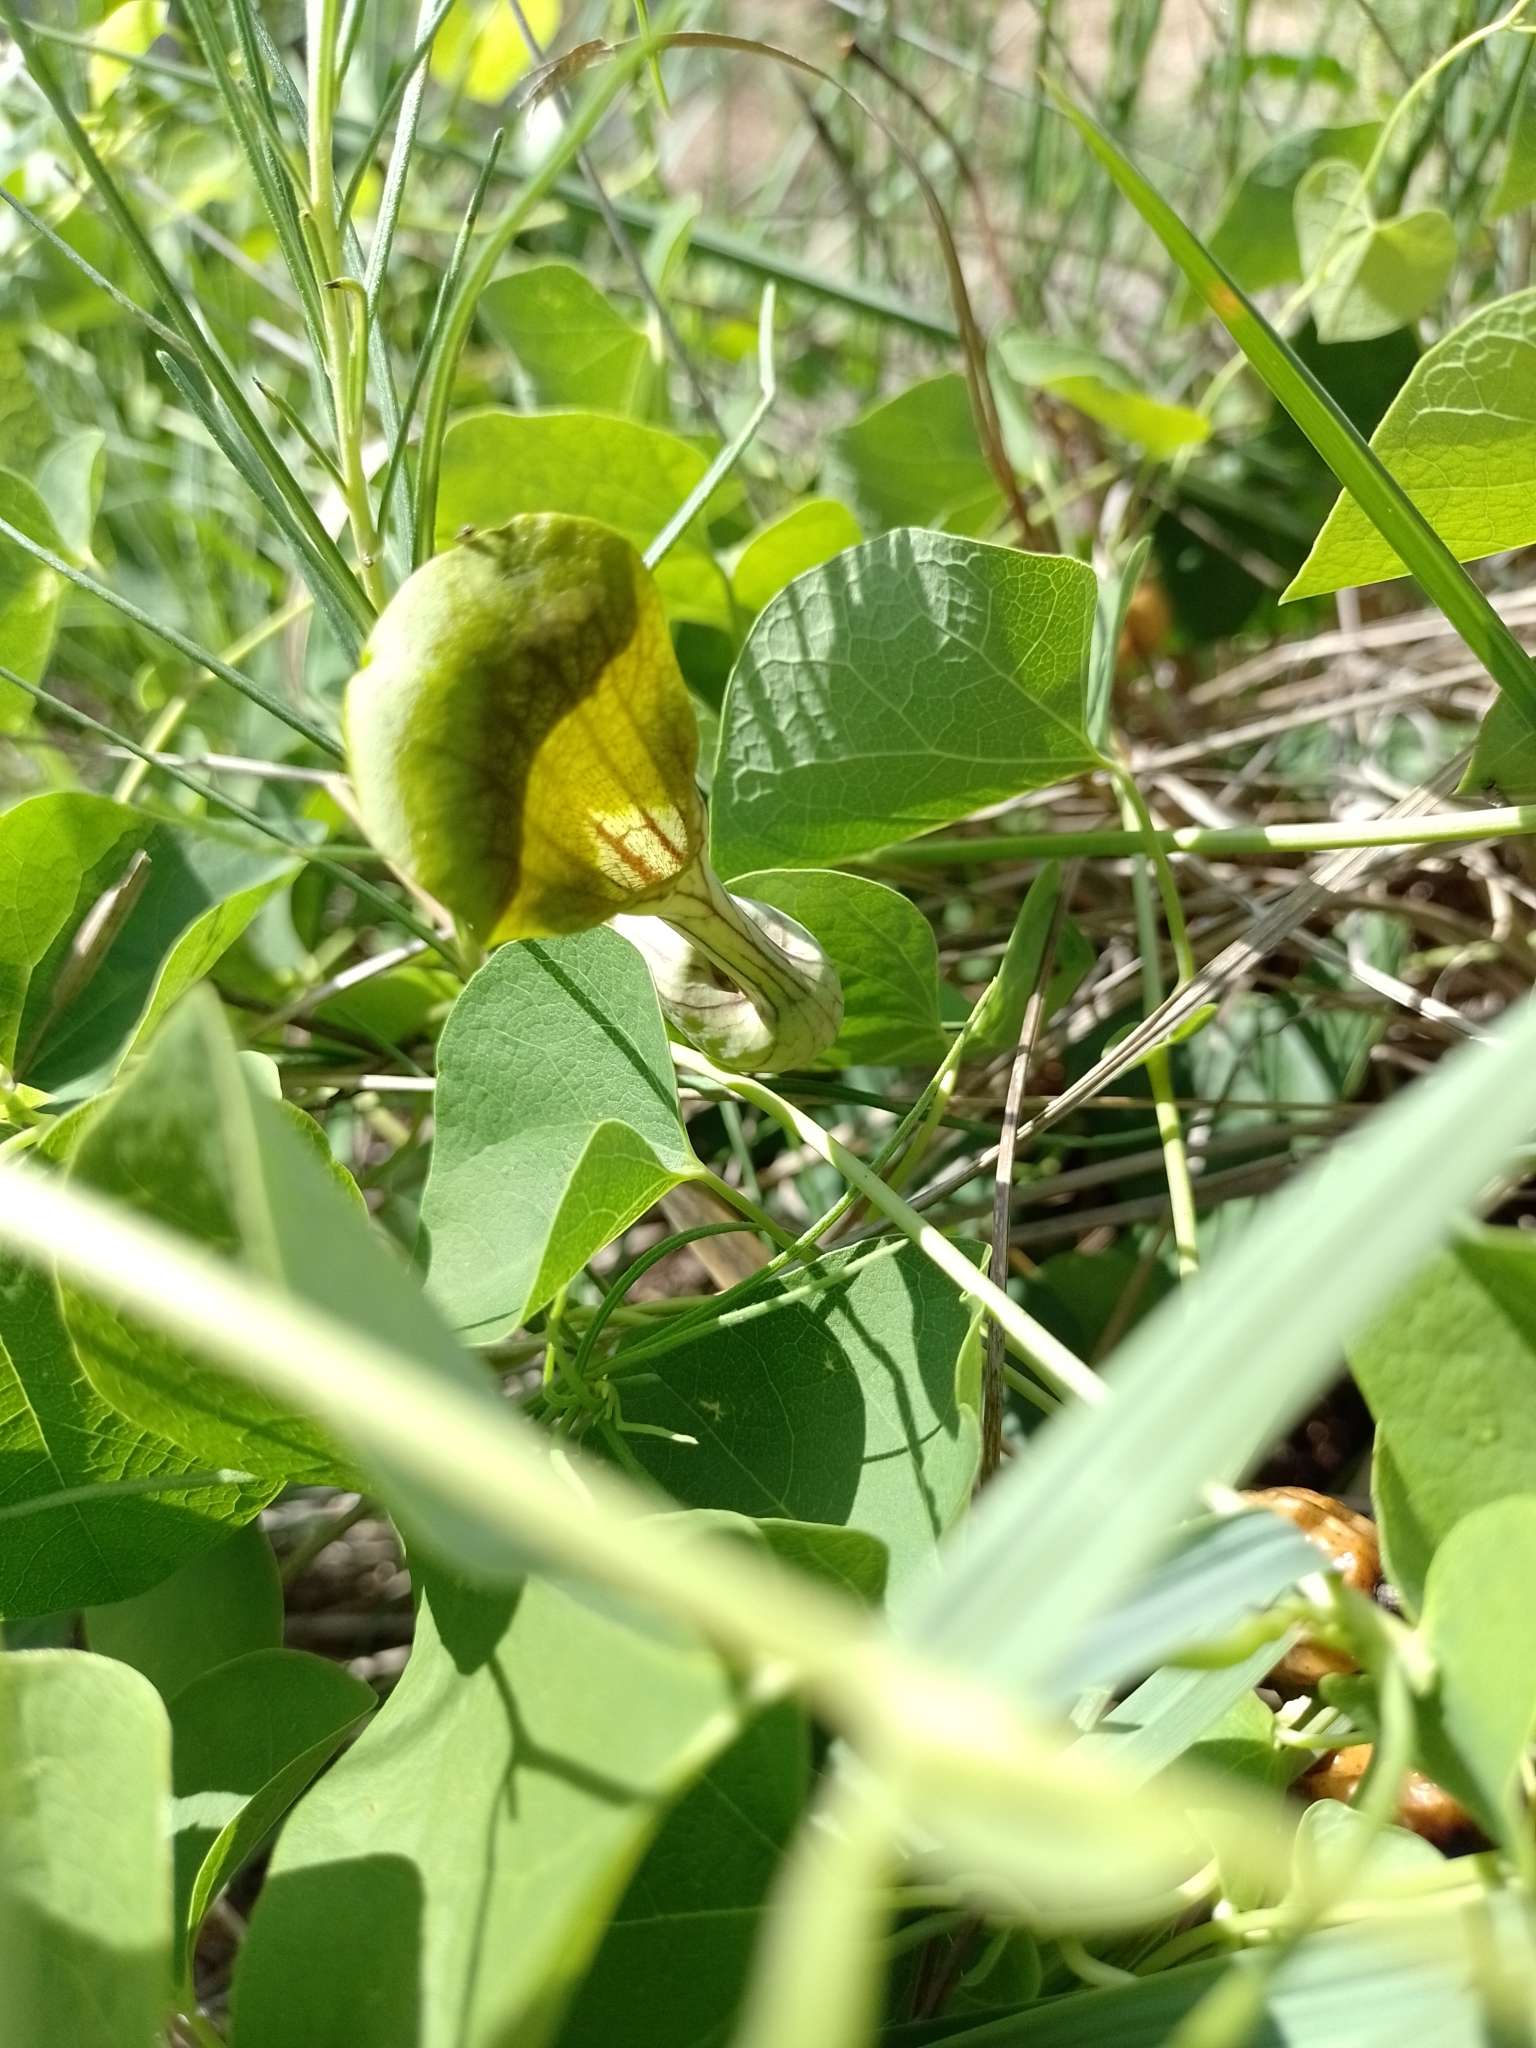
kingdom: Plantae
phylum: Tracheophyta
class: Magnoliopsida
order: Piperales
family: Aristolochiaceae
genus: Aristolochia
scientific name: Aristolochia argentina
